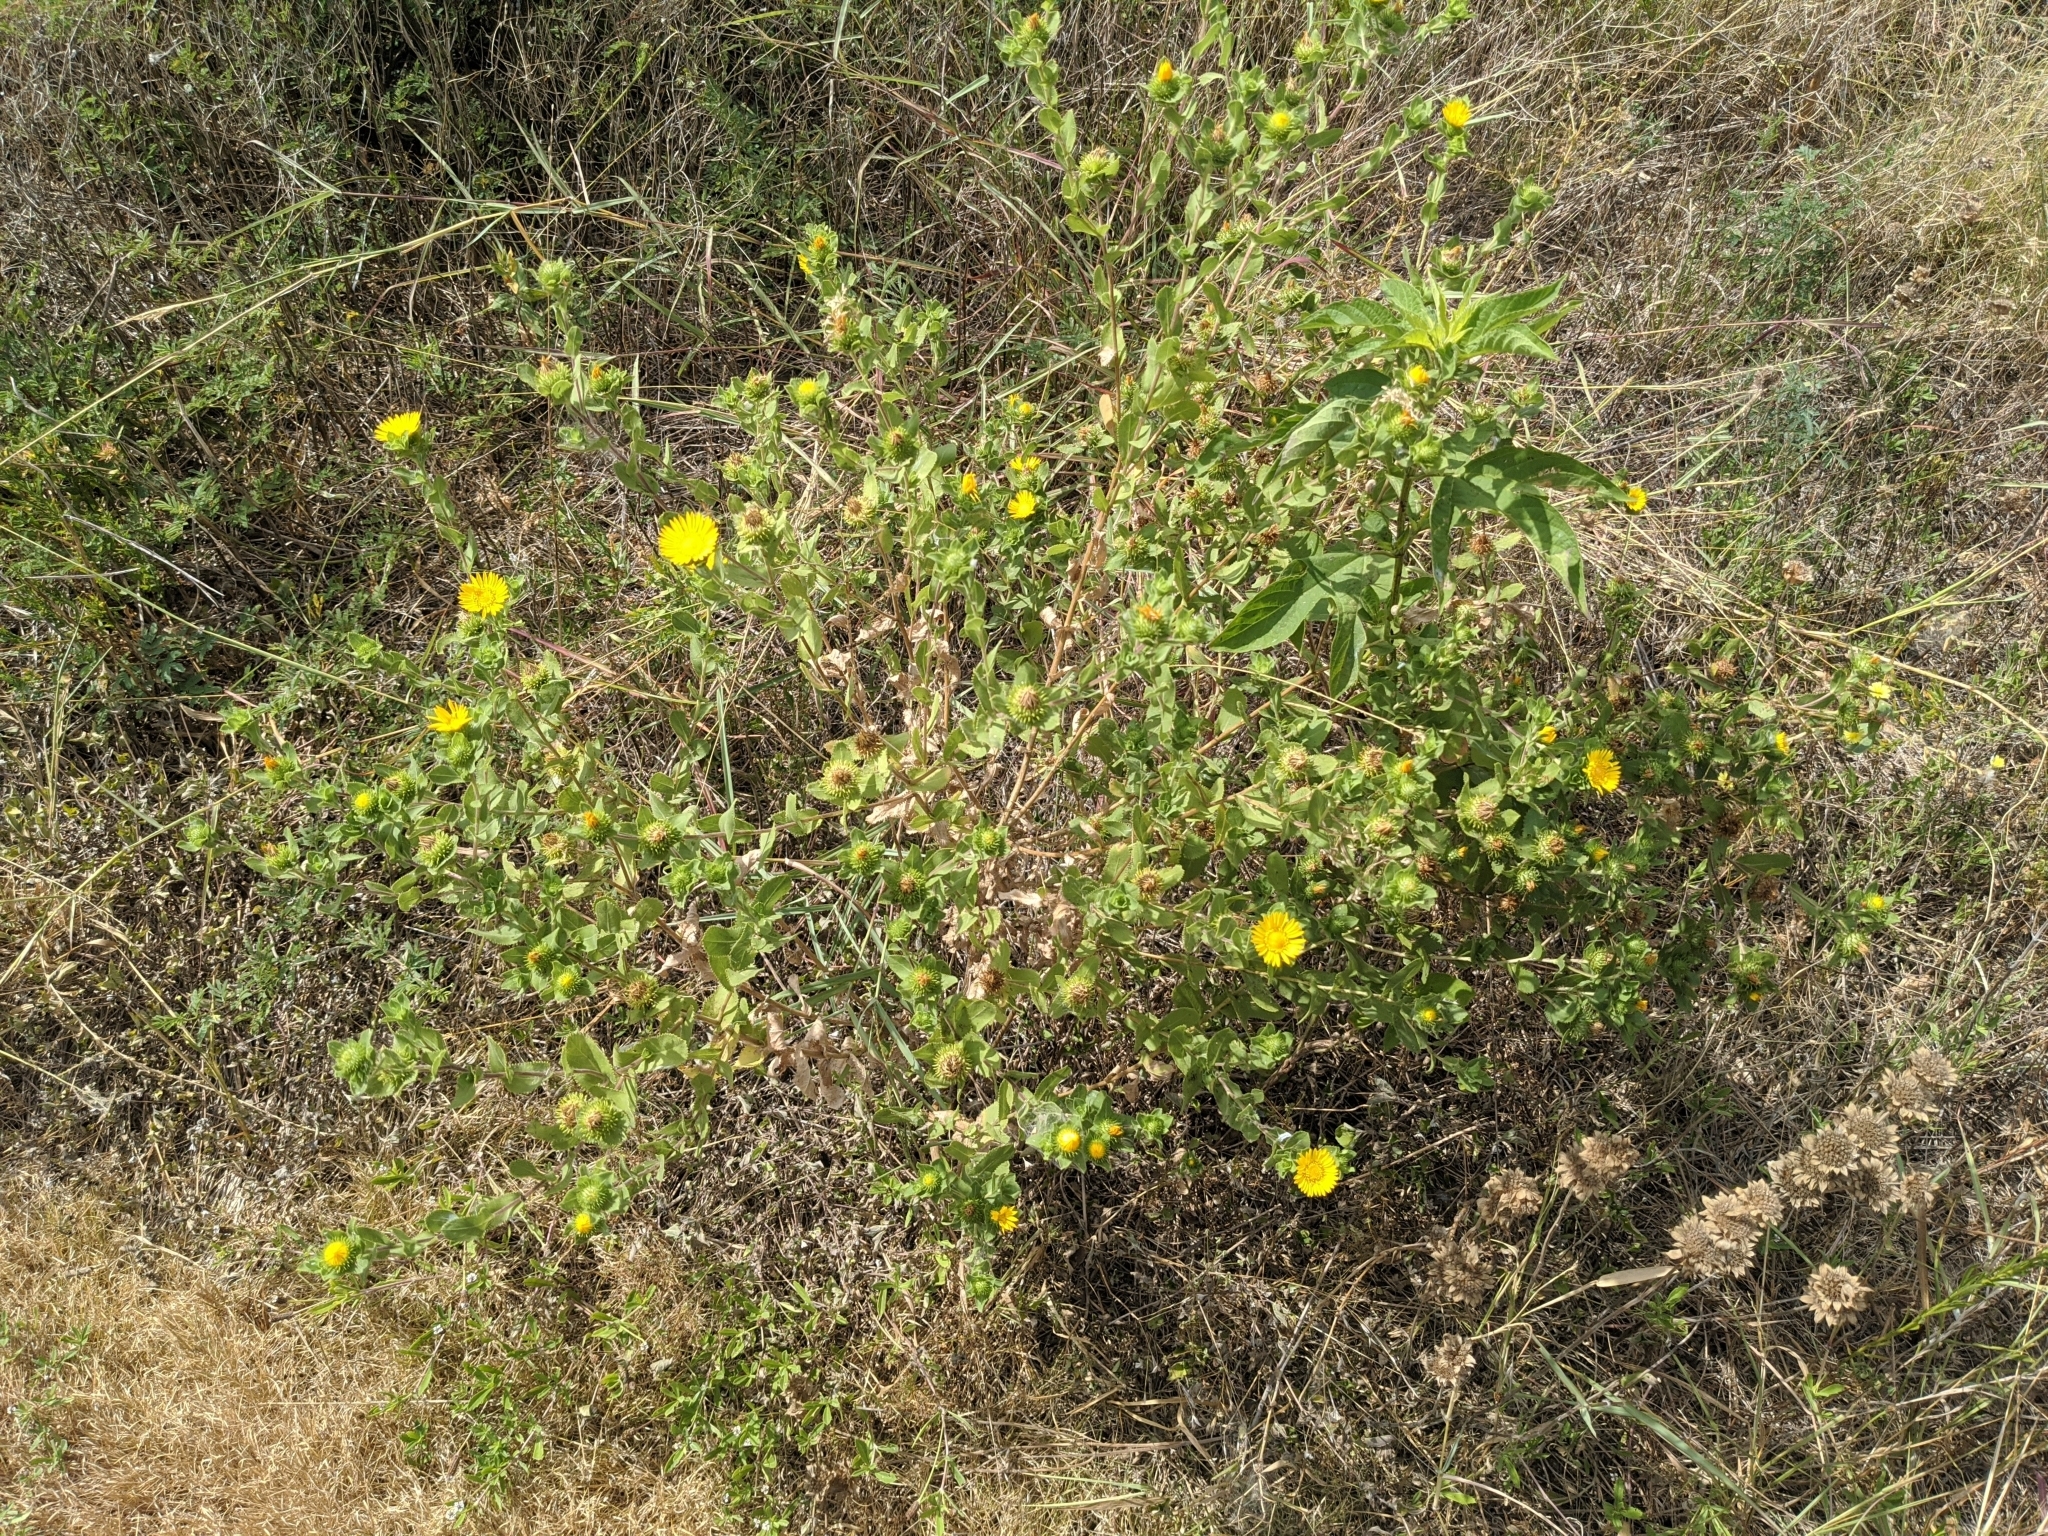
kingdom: Plantae
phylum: Tracheophyta
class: Magnoliopsida
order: Asterales
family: Asteraceae
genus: Grindelia
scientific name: Grindelia adenodonta
